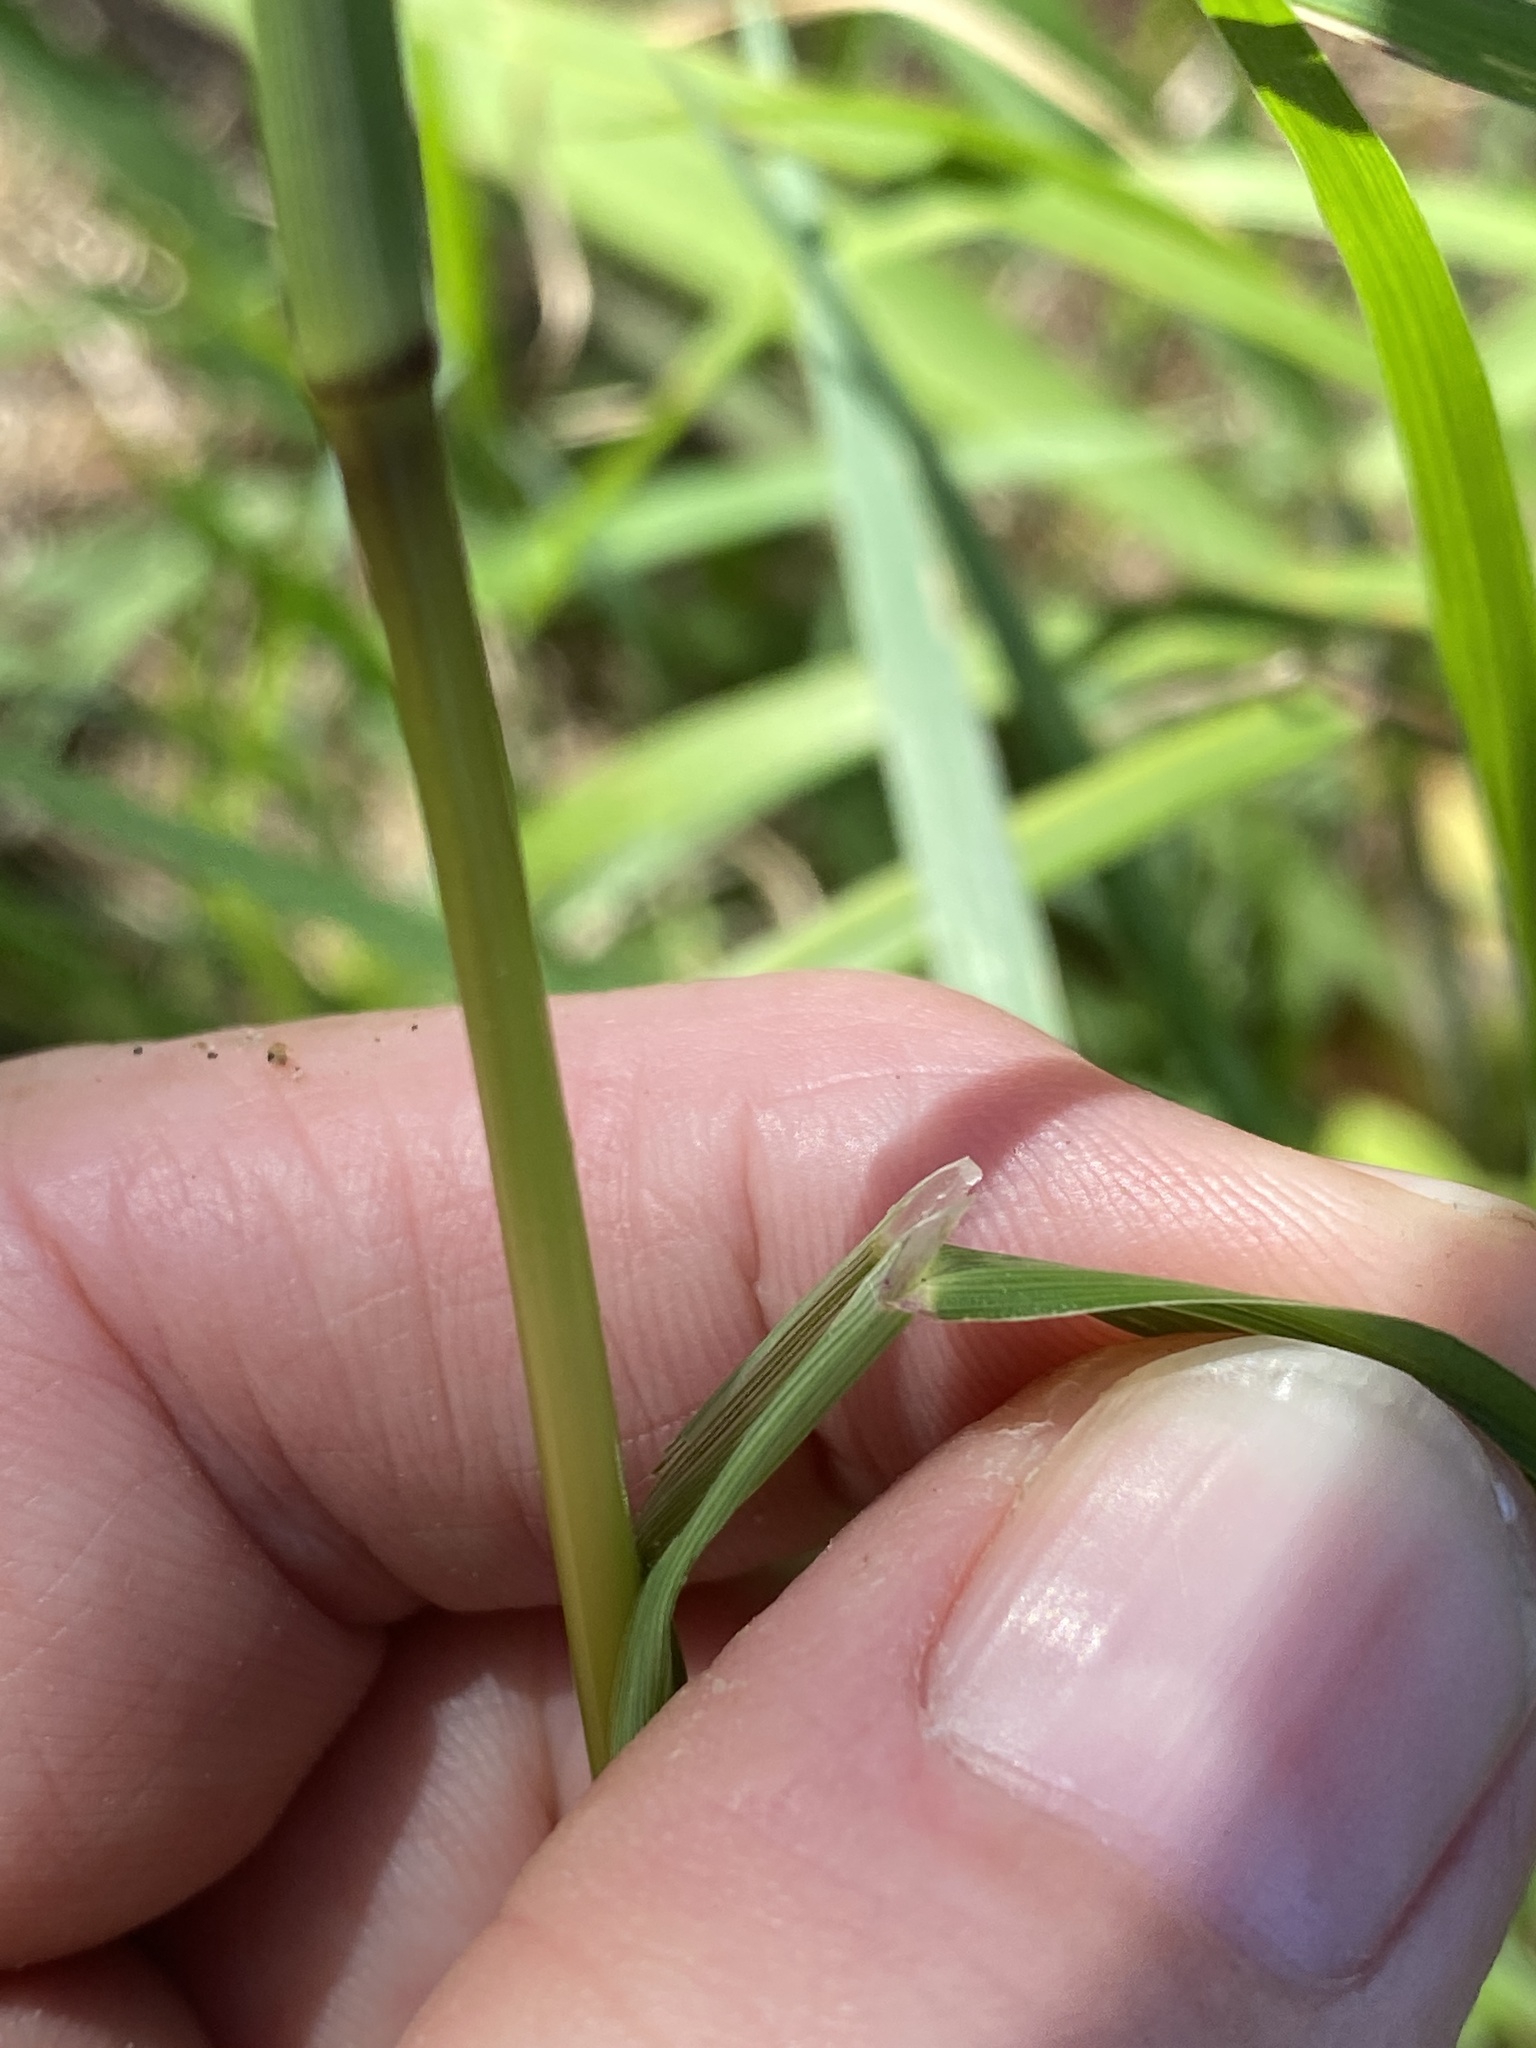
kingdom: Plantae
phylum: Tracheophyta
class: Liliopsida
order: Poales
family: Poaceae
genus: Imperata
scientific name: Imperata cylindrica
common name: Cogongrass
